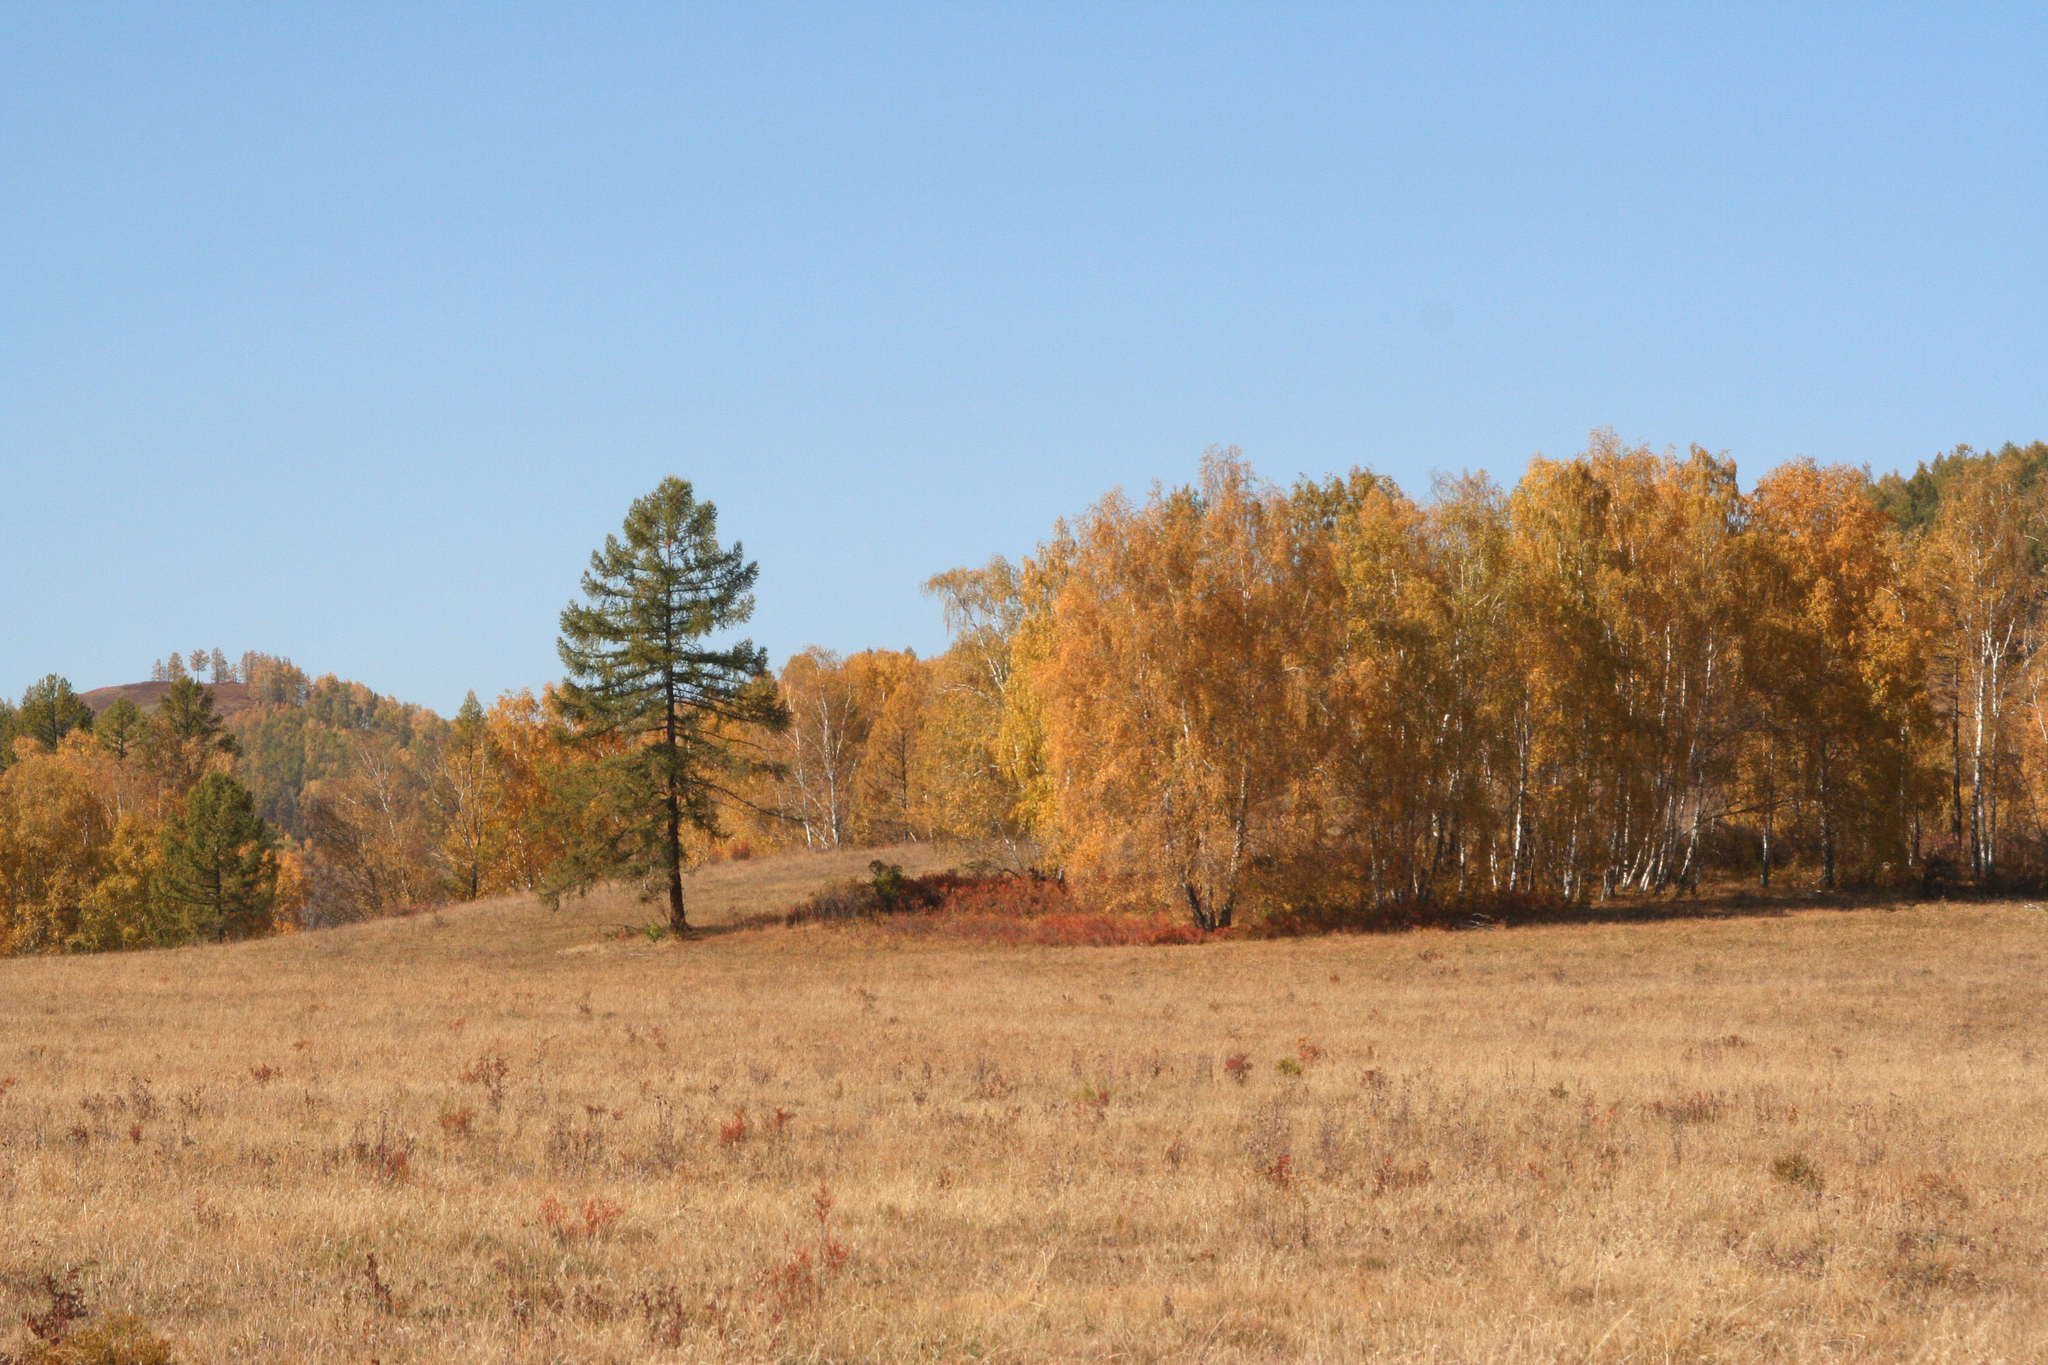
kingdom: Plantae
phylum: Tracheophyta
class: Pinopsida
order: Pinales
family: Pinaceae
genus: Larix
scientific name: Larix sibirica
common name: Siberian larch
